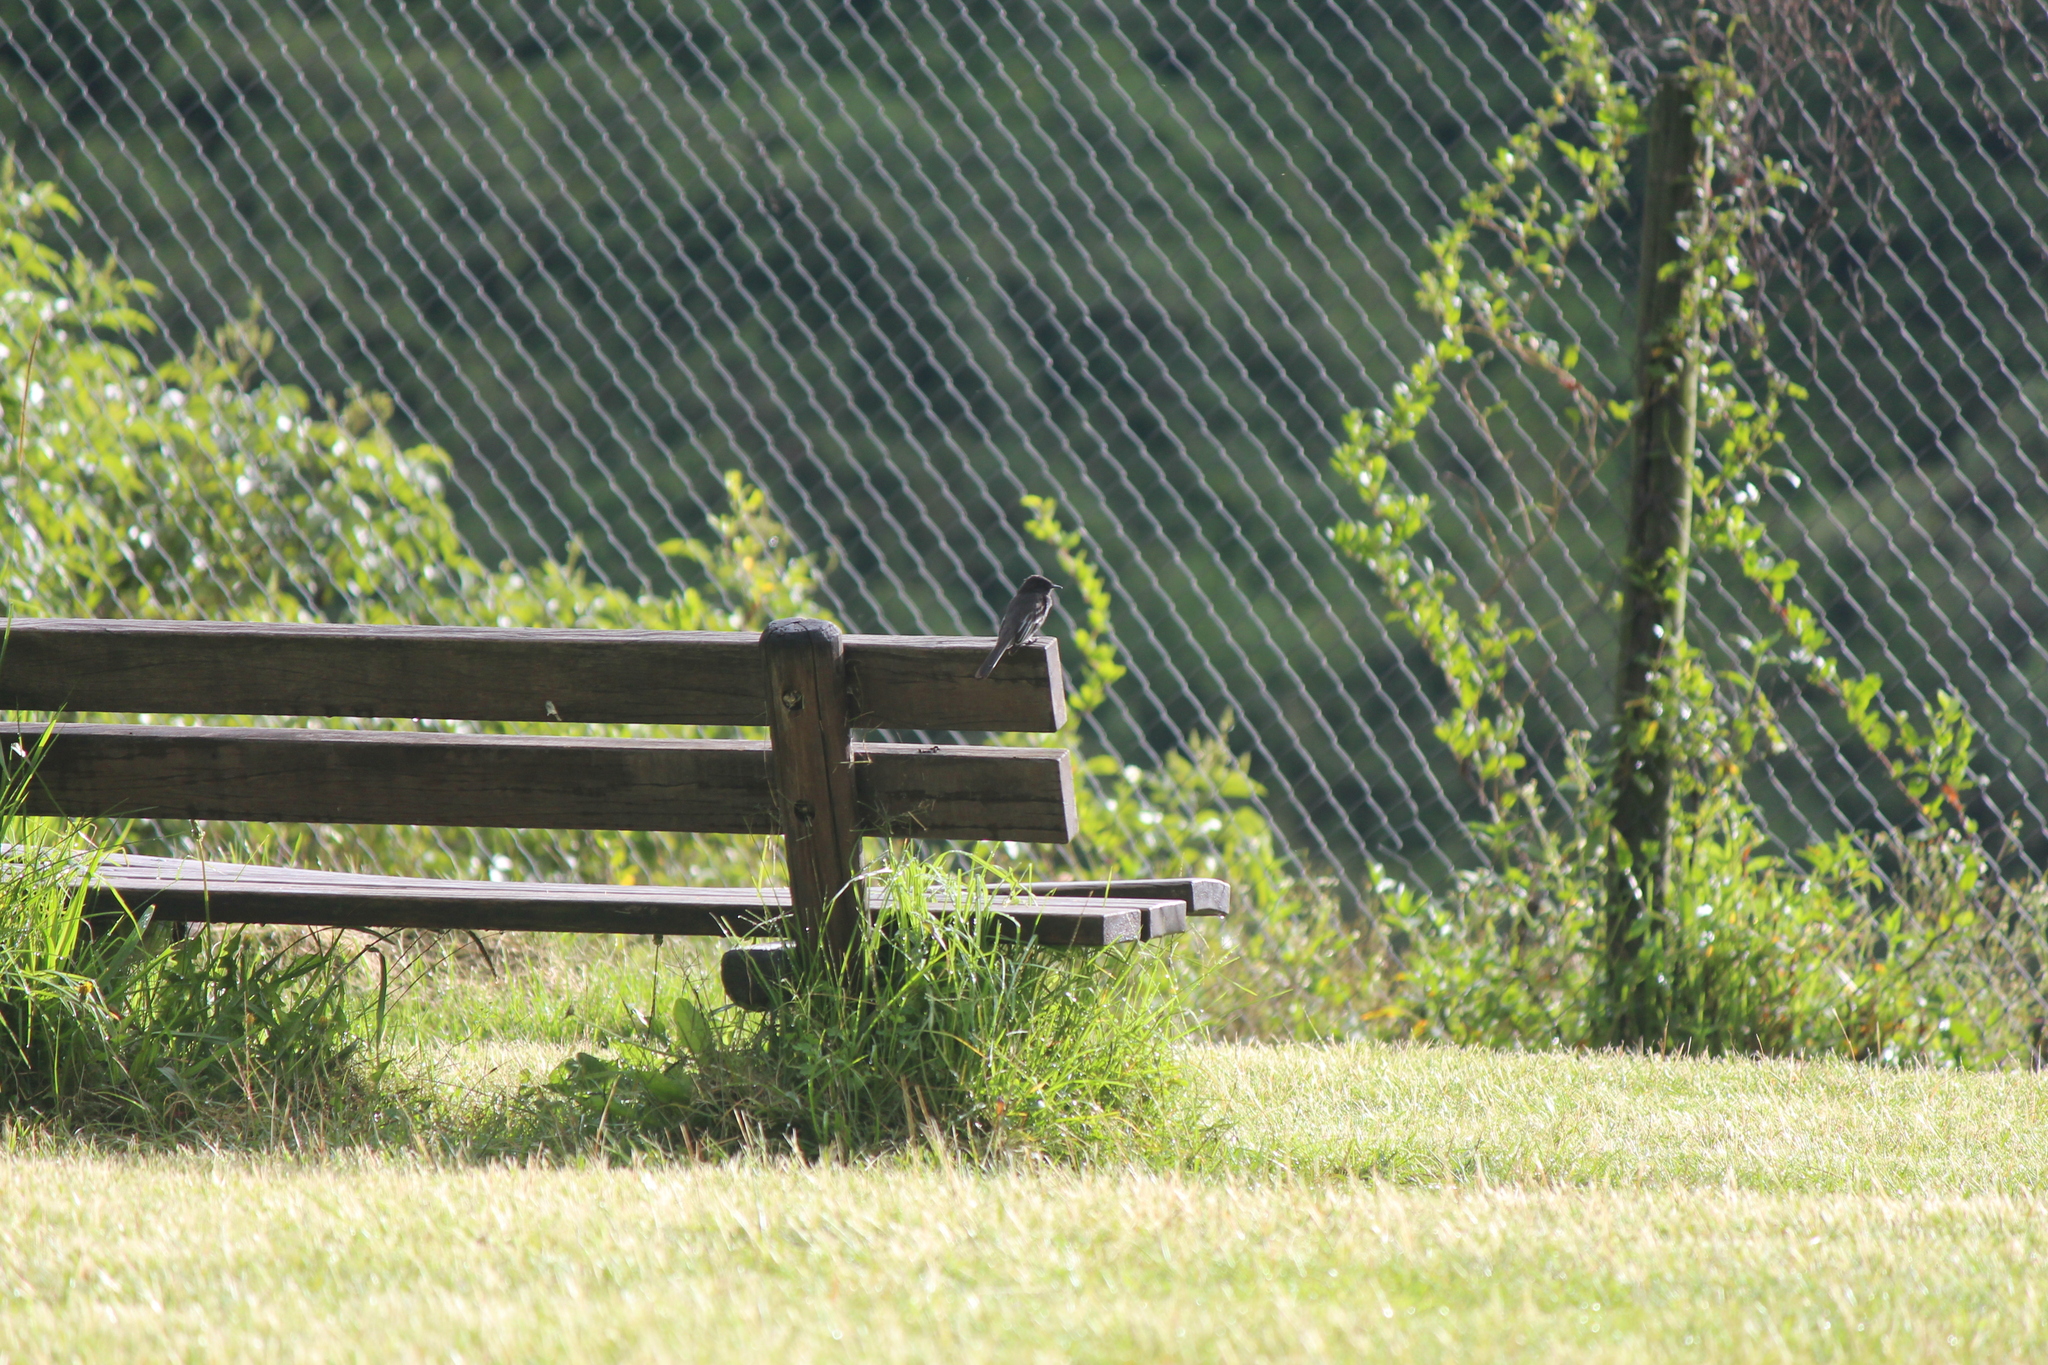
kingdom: Animalia
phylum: Chordata
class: Aves
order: Passeriformes
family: Tyrannidae
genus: Sayornis
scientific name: Sayornis nigricans
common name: Black phoebe
